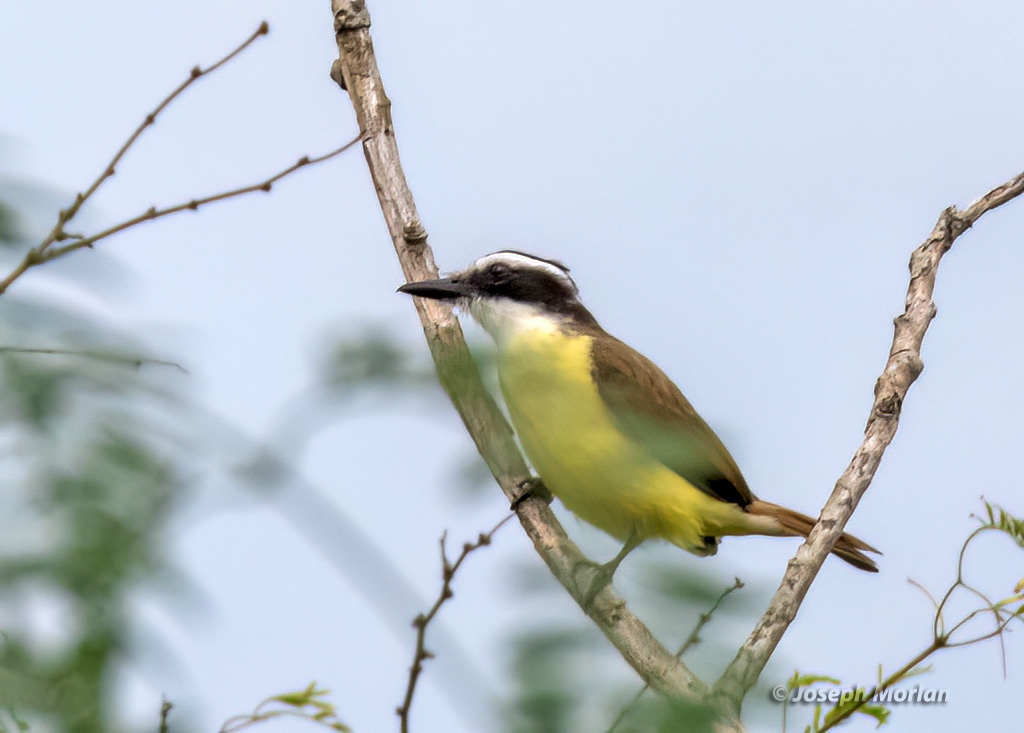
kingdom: Animalia
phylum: Chordata
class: Aves
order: Passeriformes
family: Tyrannidae
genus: Pitangus
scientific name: Pitangus sulphuratus
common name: Great kiskadee
